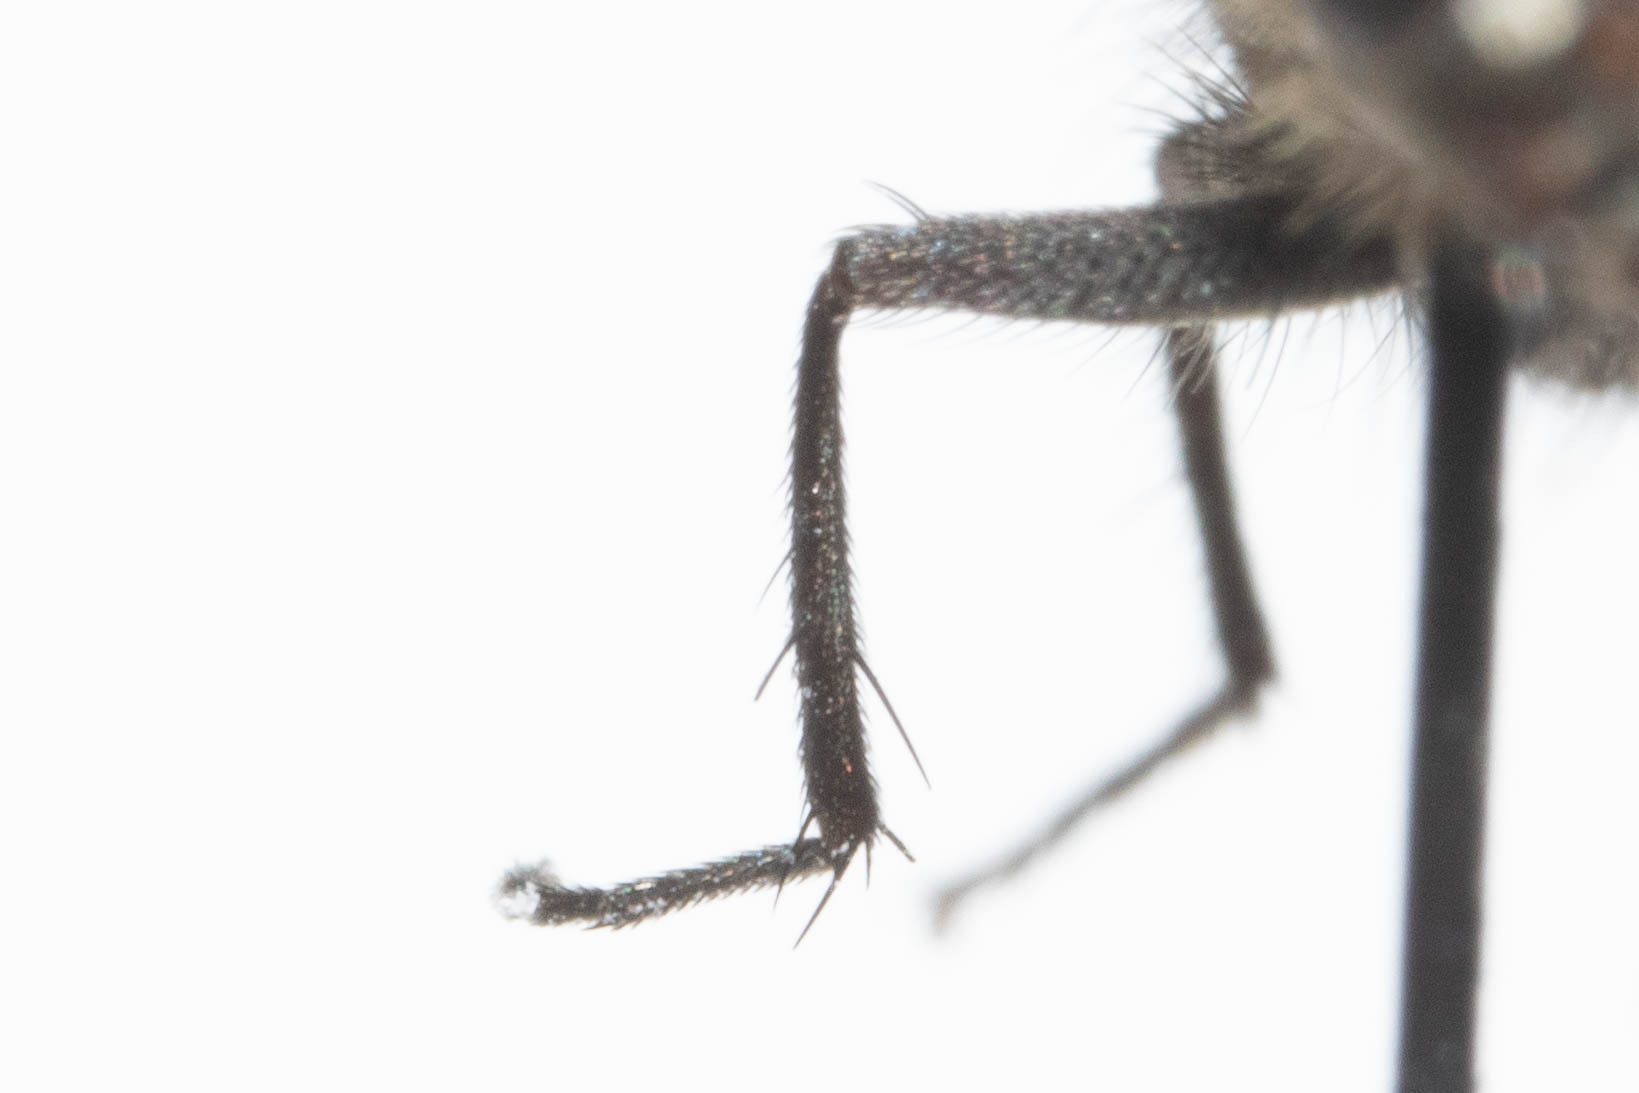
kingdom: Animalia
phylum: Arthropoda
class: Insecta
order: Diptera
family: Polleniidae
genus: Pollenia
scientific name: Pollenia griseotomentosa
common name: Little clusterfly
